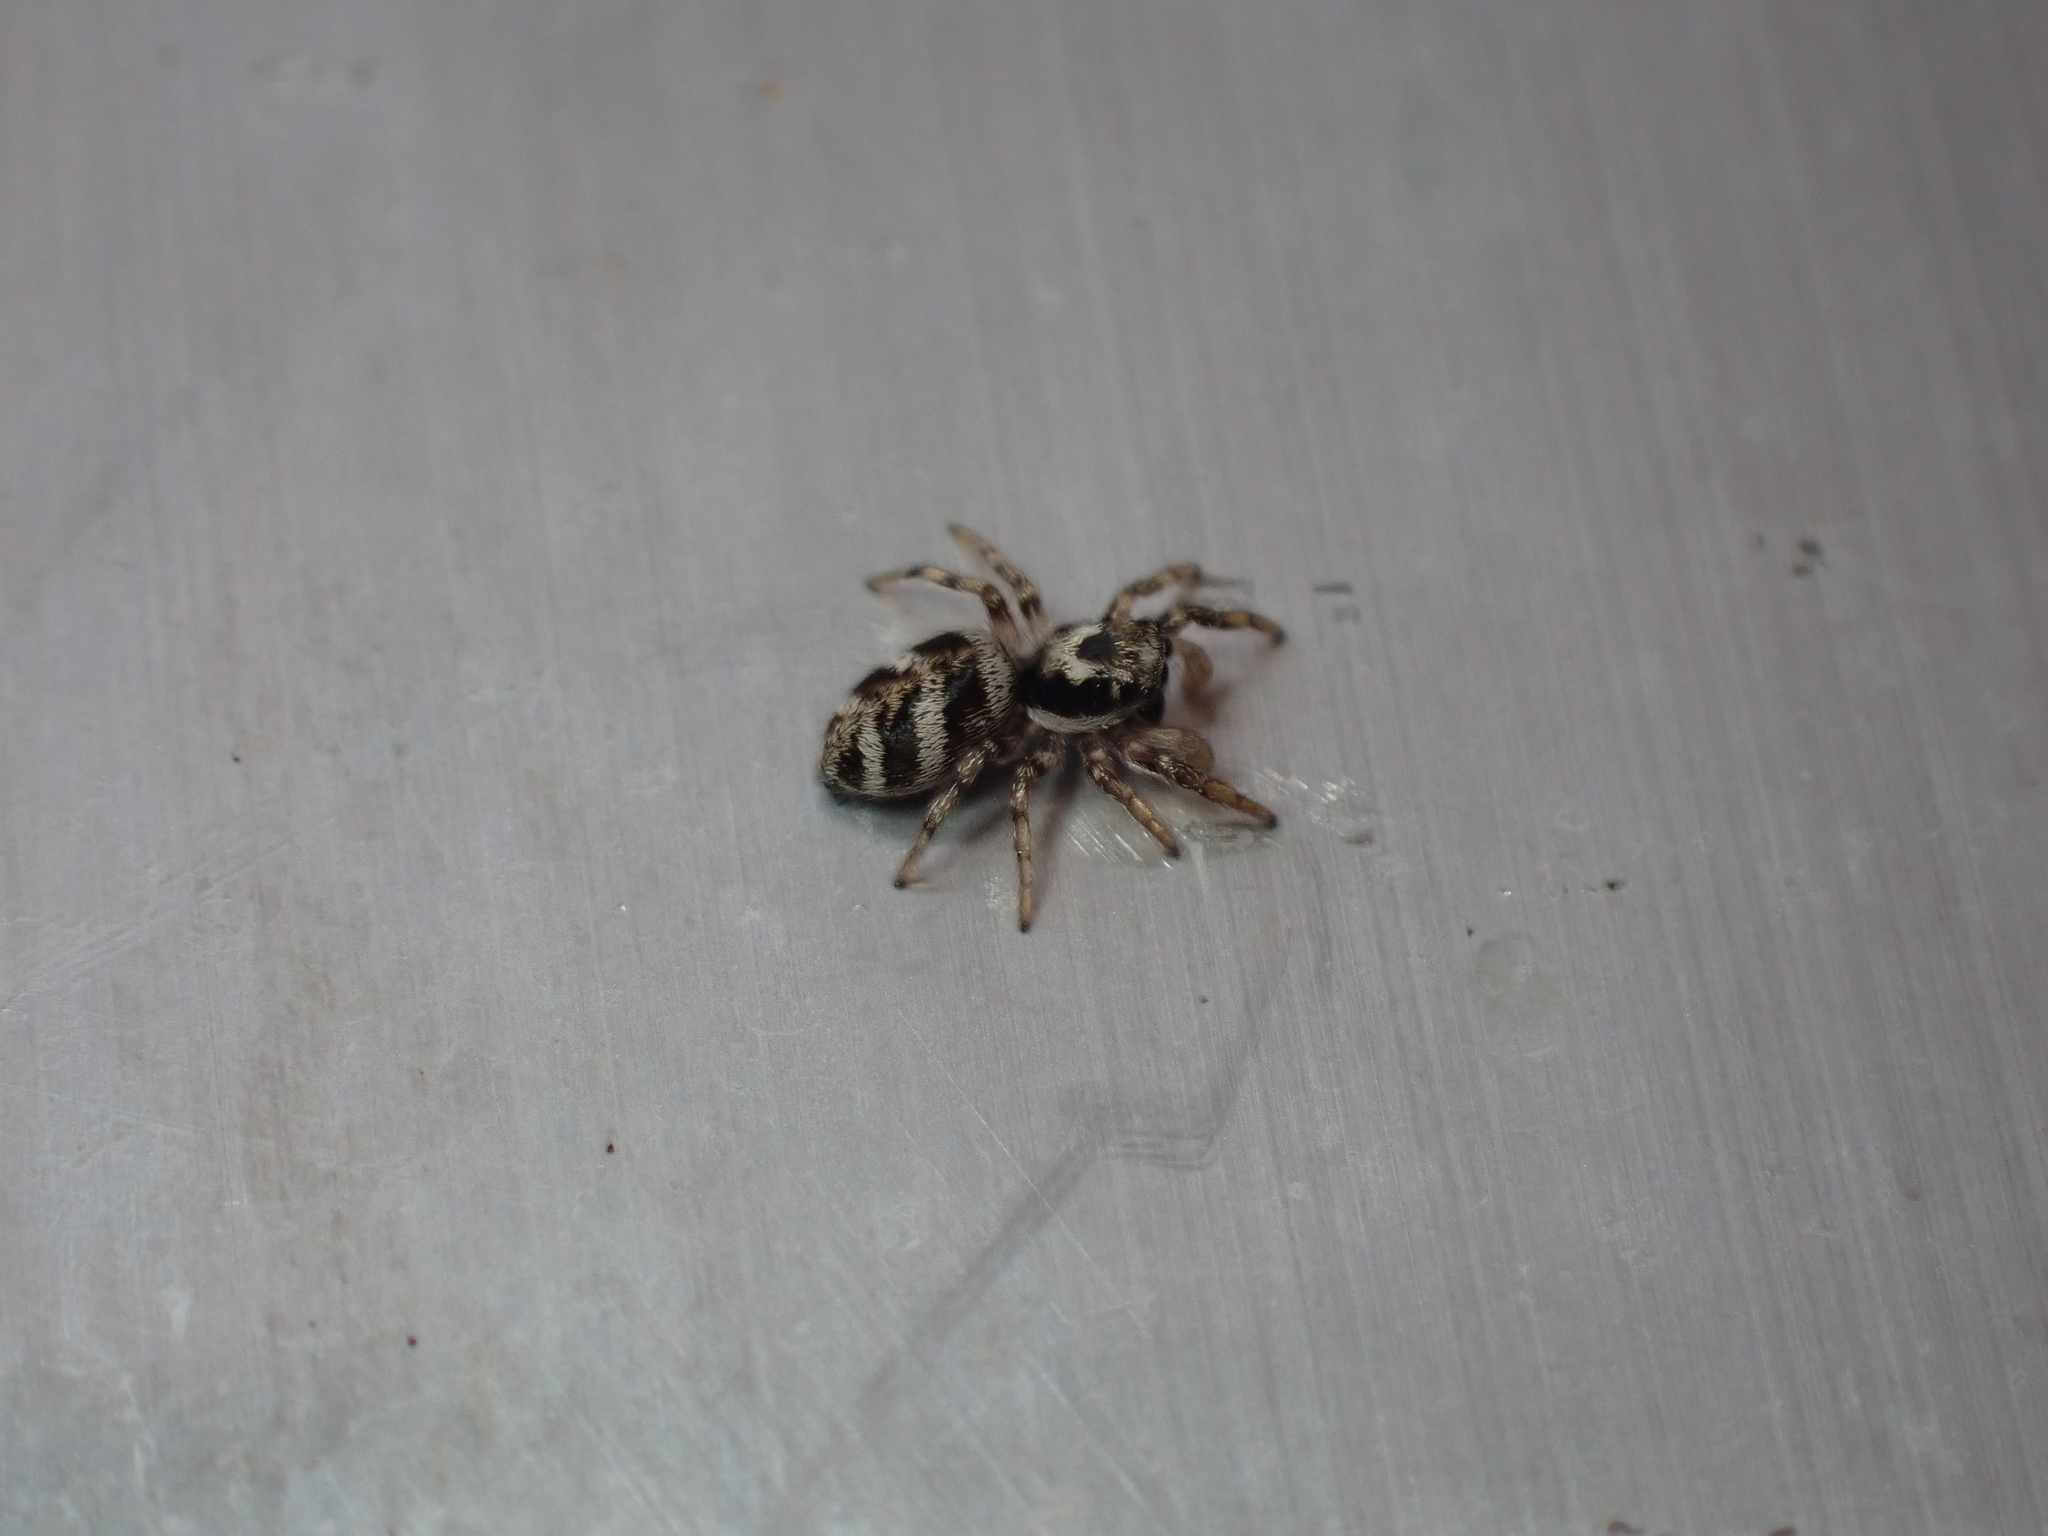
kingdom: Animalia
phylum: Arthropoda
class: Arachnida
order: Araneae
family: Salticidae
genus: Salticus
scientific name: Salticus scenicus
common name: Zebra jumper
